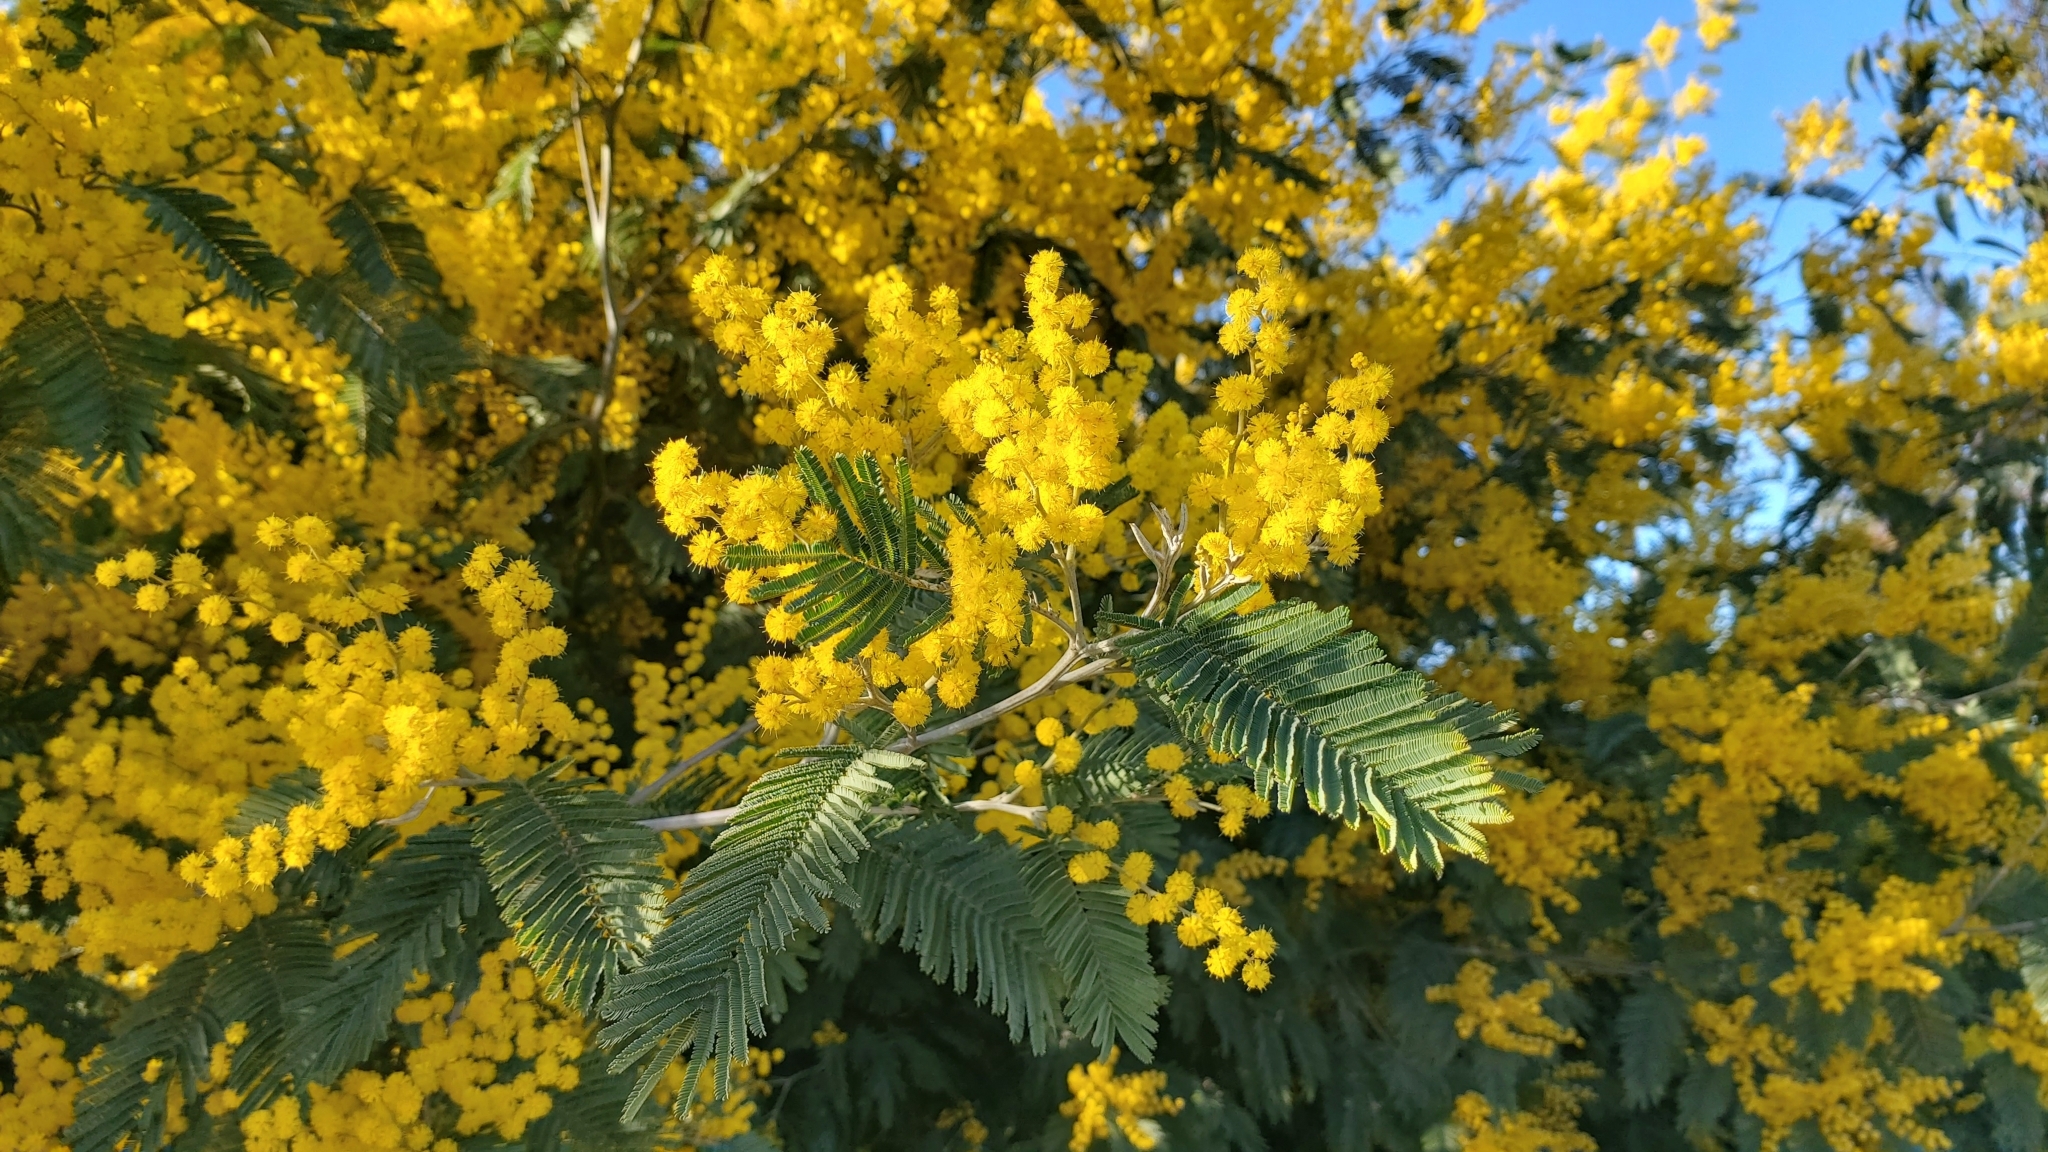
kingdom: Plantae
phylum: Tracheophyta
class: Magnoliopsida
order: Fabales
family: Fabaceae
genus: Acacia
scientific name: Acacia dealbata
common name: Silver wattle
